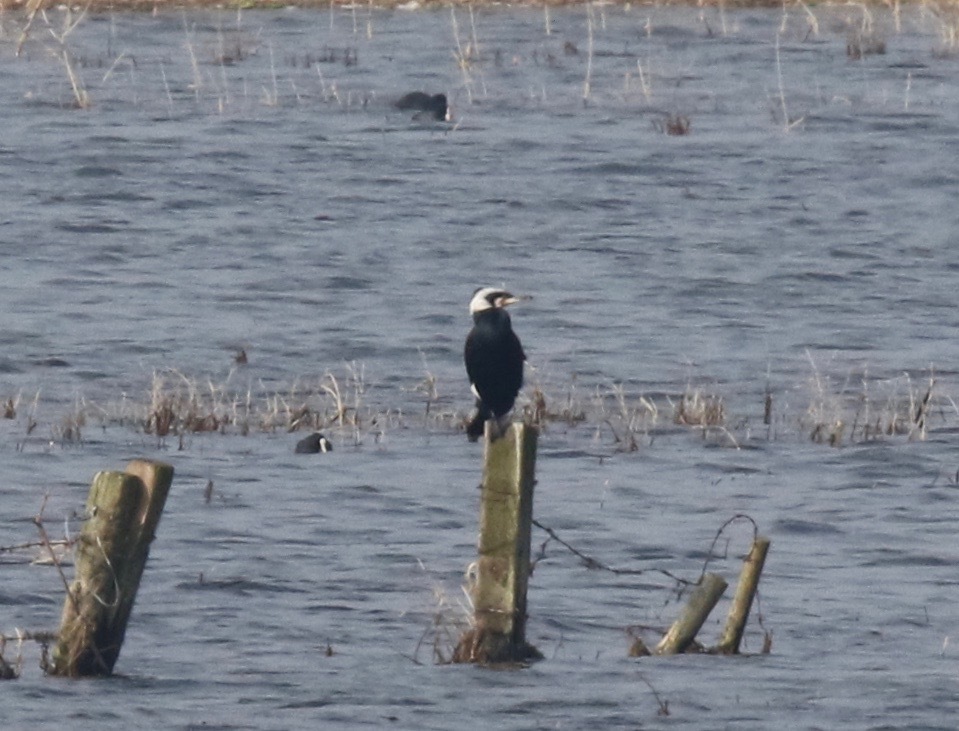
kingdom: Animalia
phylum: Chordata
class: Aves
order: Suliformes
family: Phalacrocoracidae
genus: Phalacrocorax
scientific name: Phalacrocorax carbo
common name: Great cormorant
